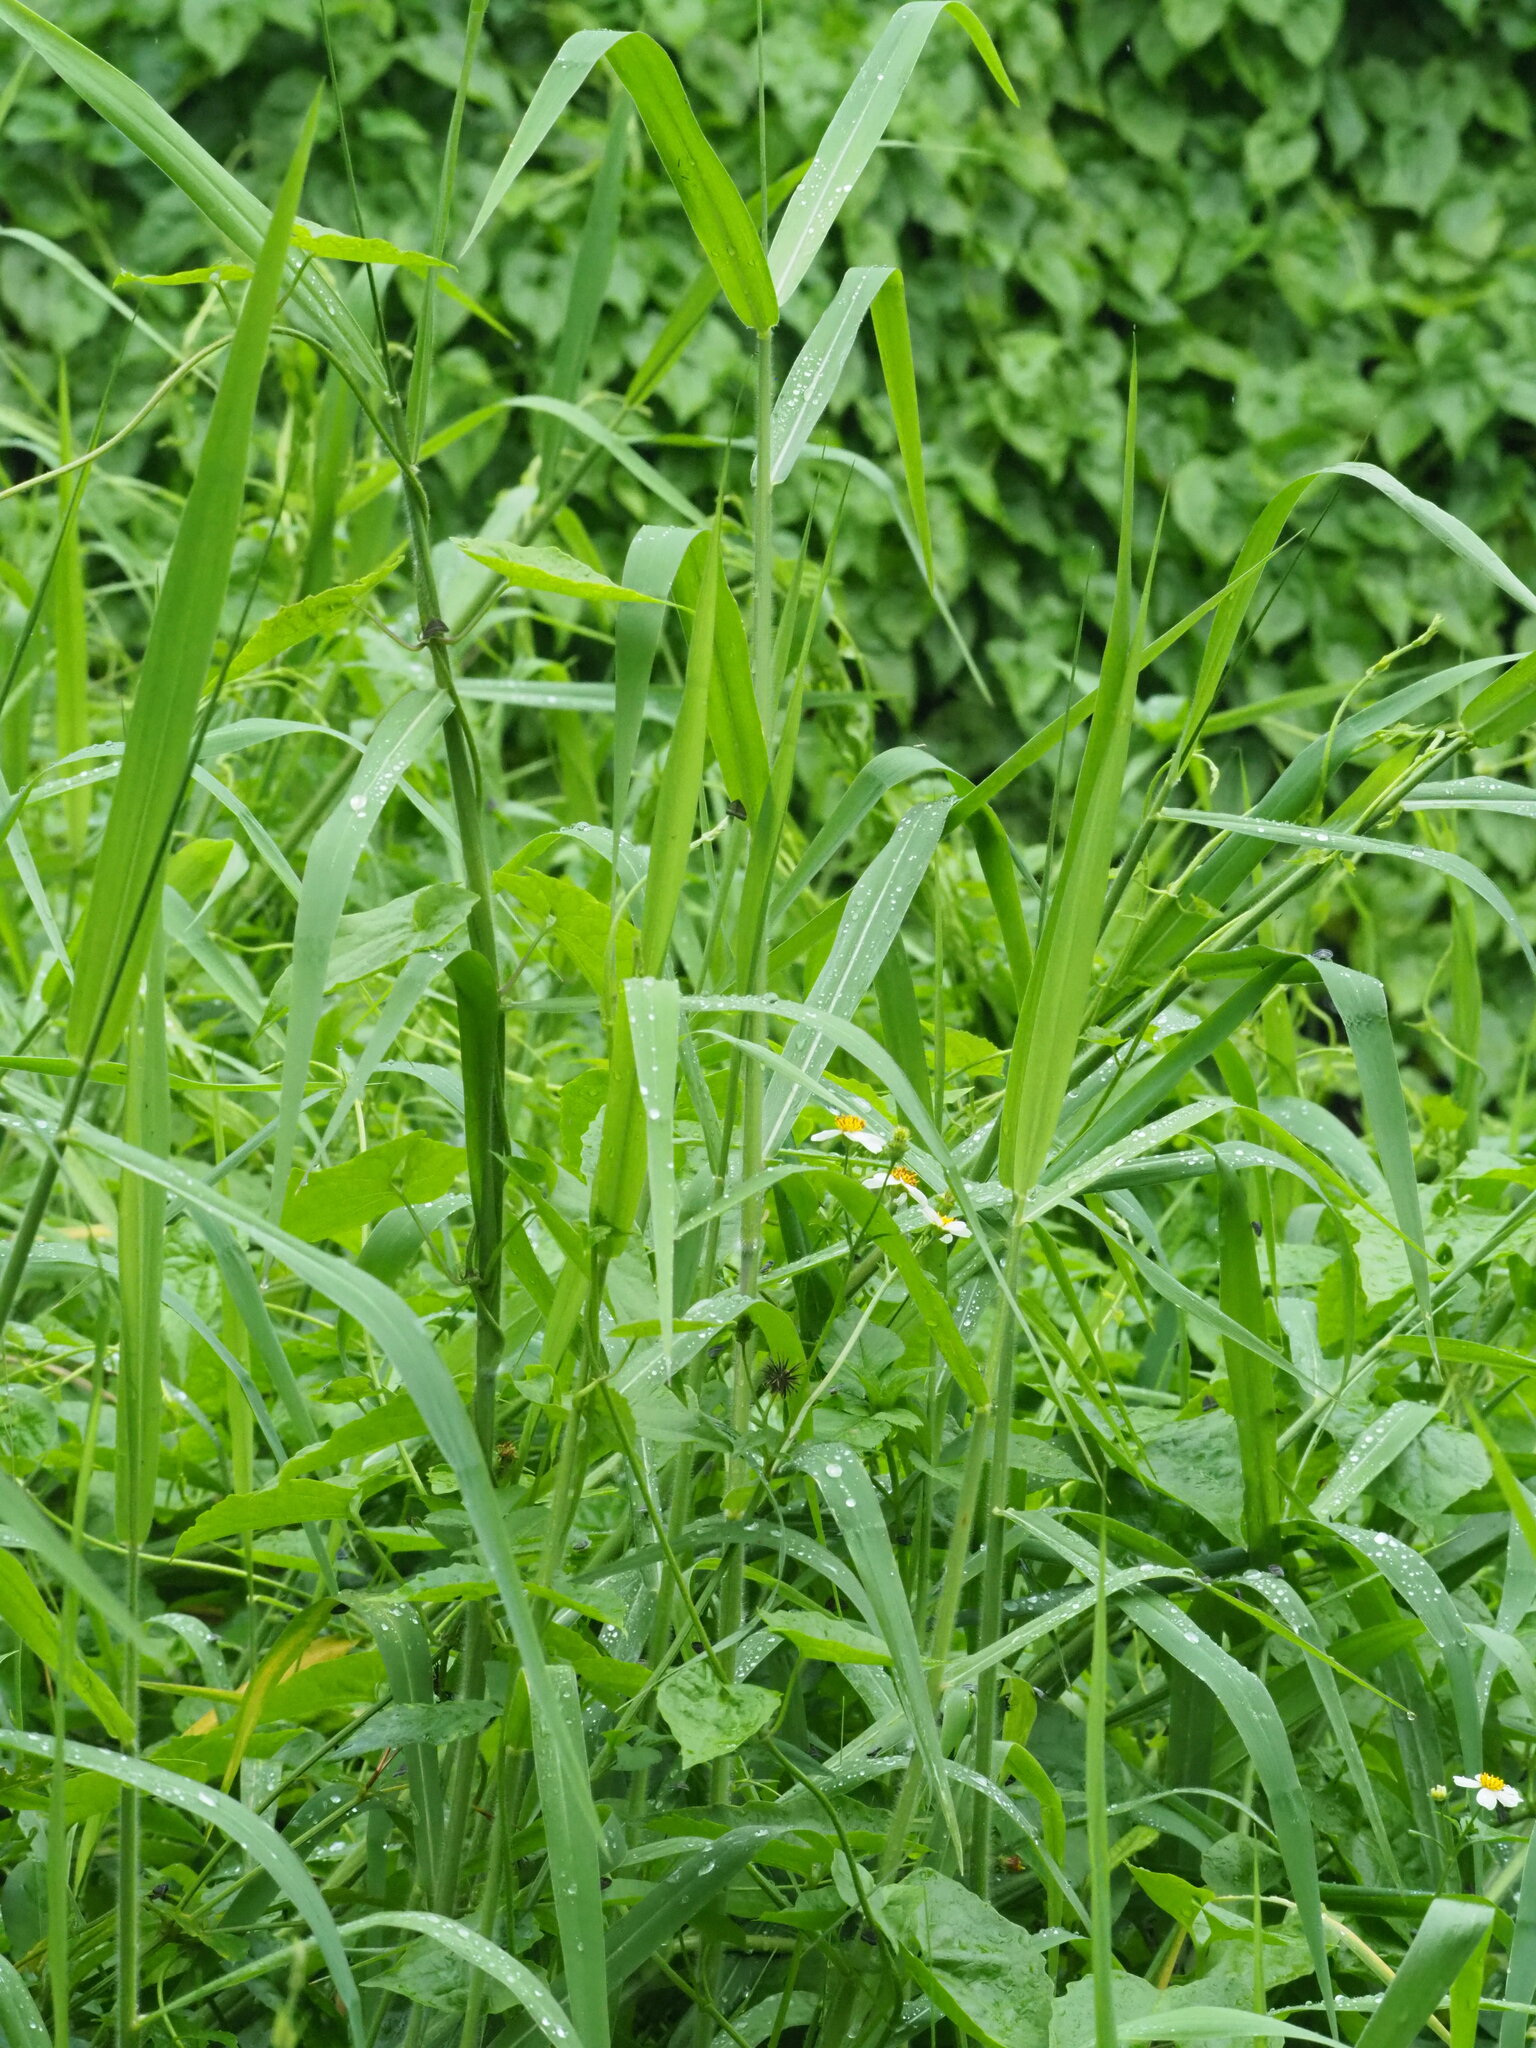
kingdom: Plantae
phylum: Tracheophyta
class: Liliopsida
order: Poales
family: Poaceae
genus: Urochloa
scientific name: Urochloa mutica
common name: Para grass
